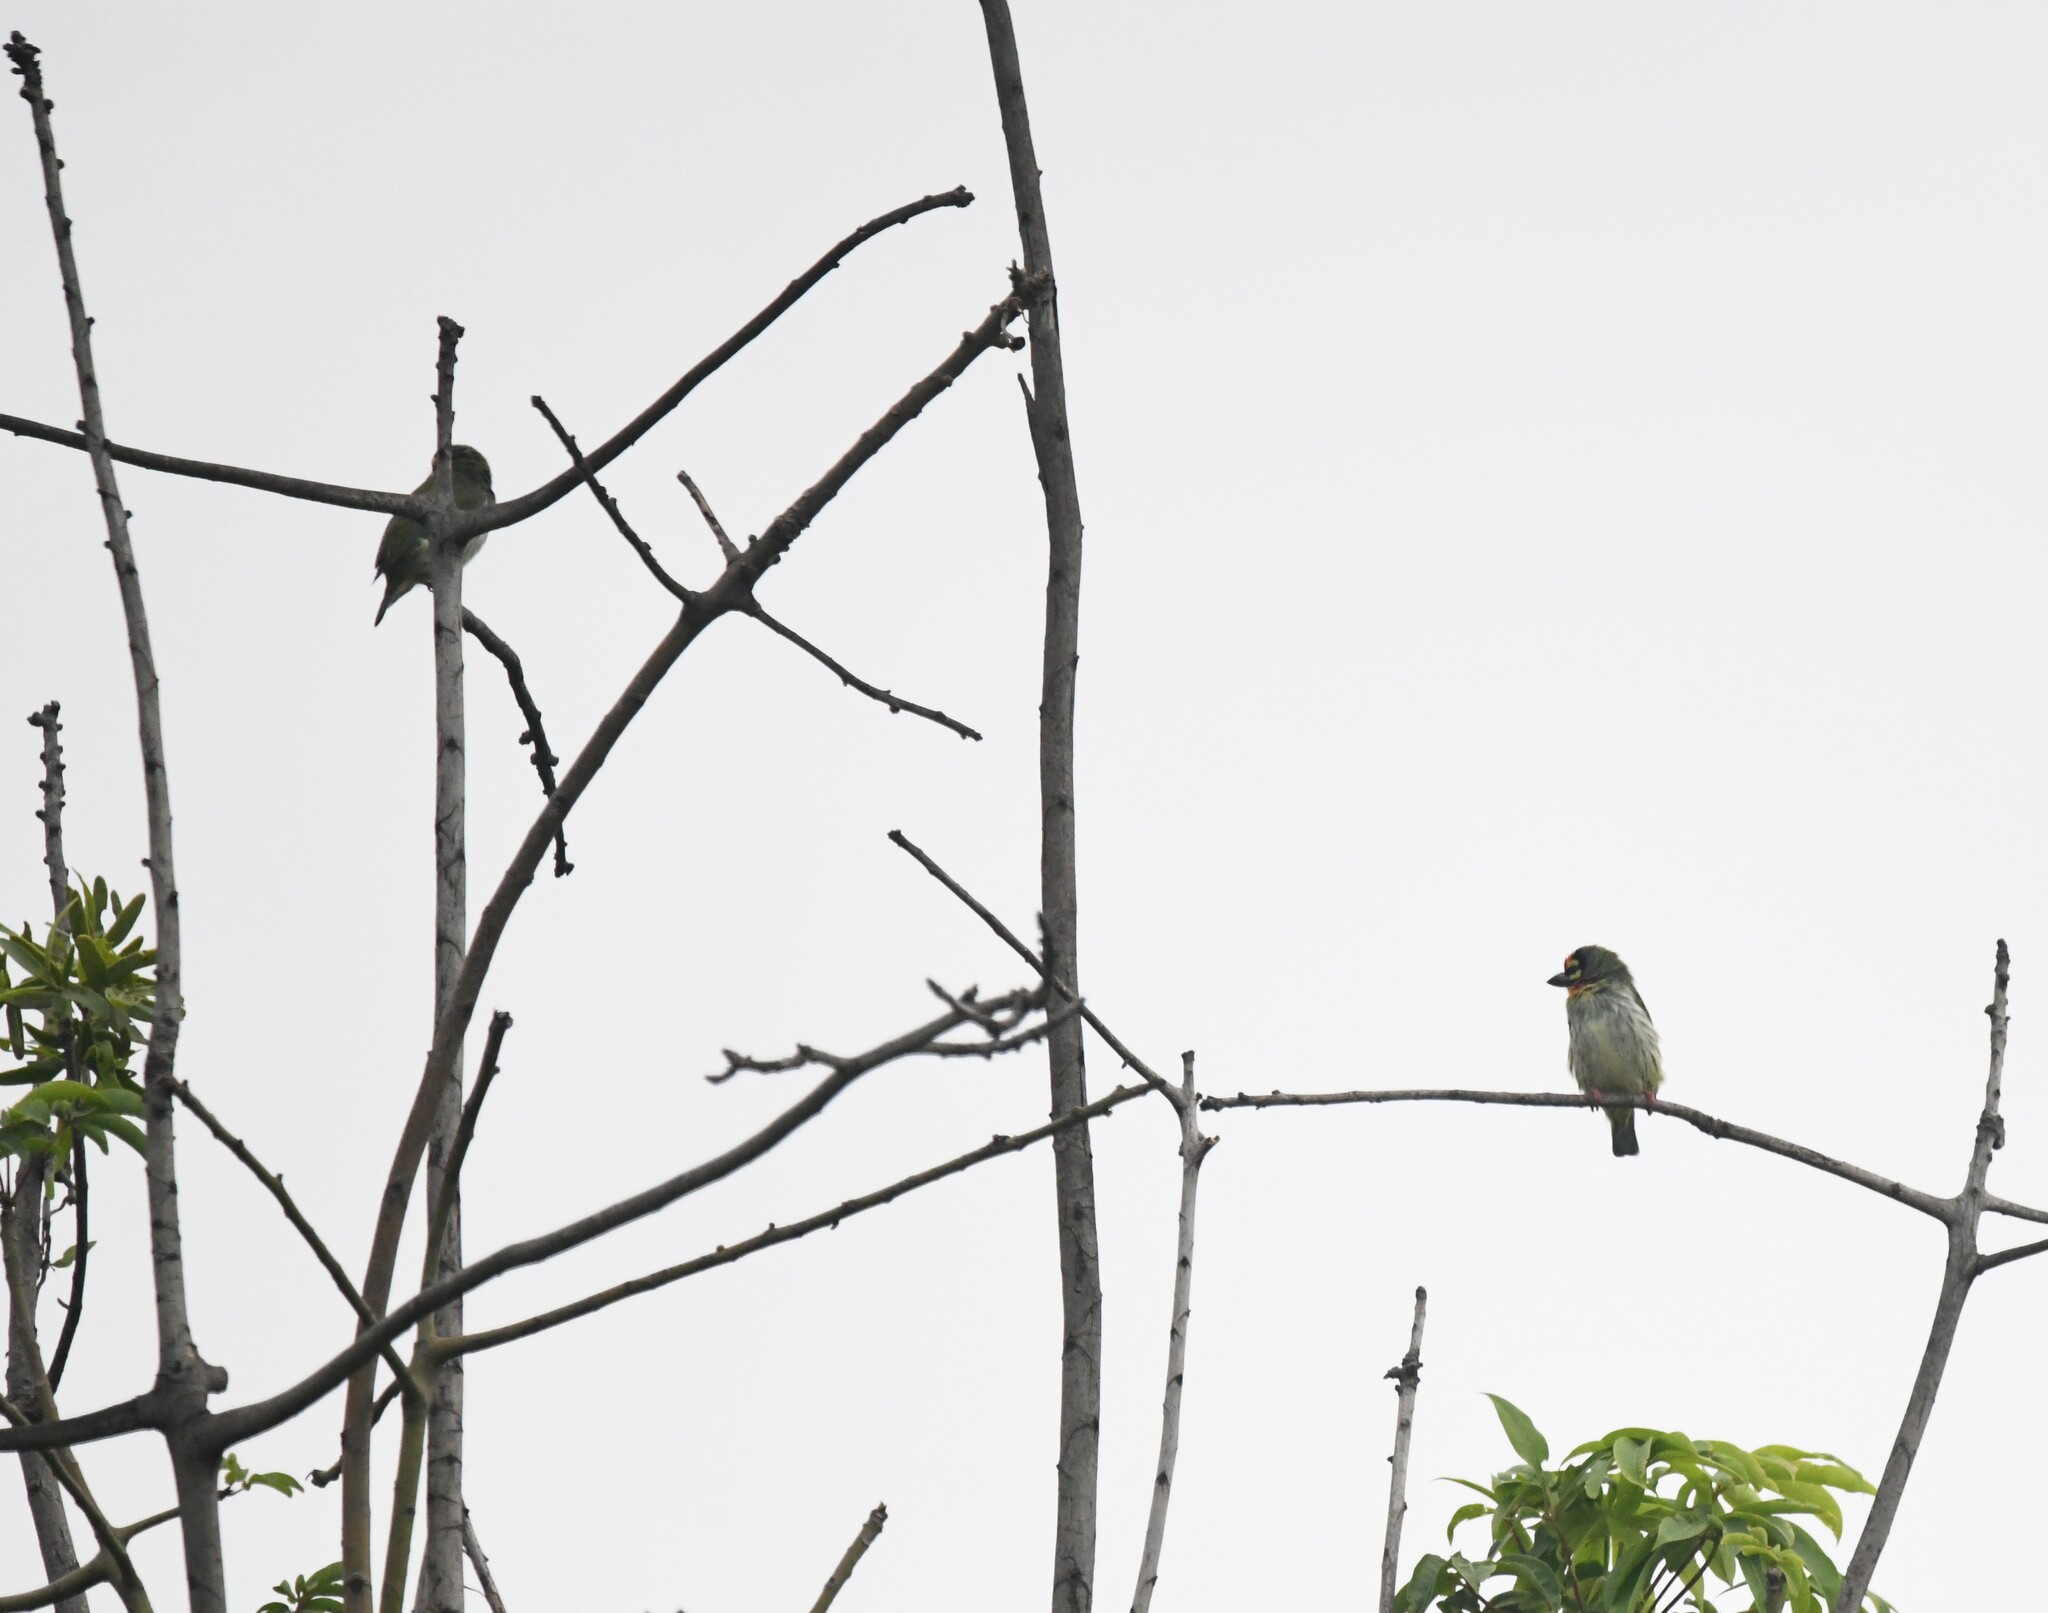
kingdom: Animalia
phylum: Chordata
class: Aves
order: Piciformes
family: Megalaimidae
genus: Psilopogon
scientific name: Psilopogon haemacephalus
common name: Coppersmith barbet
